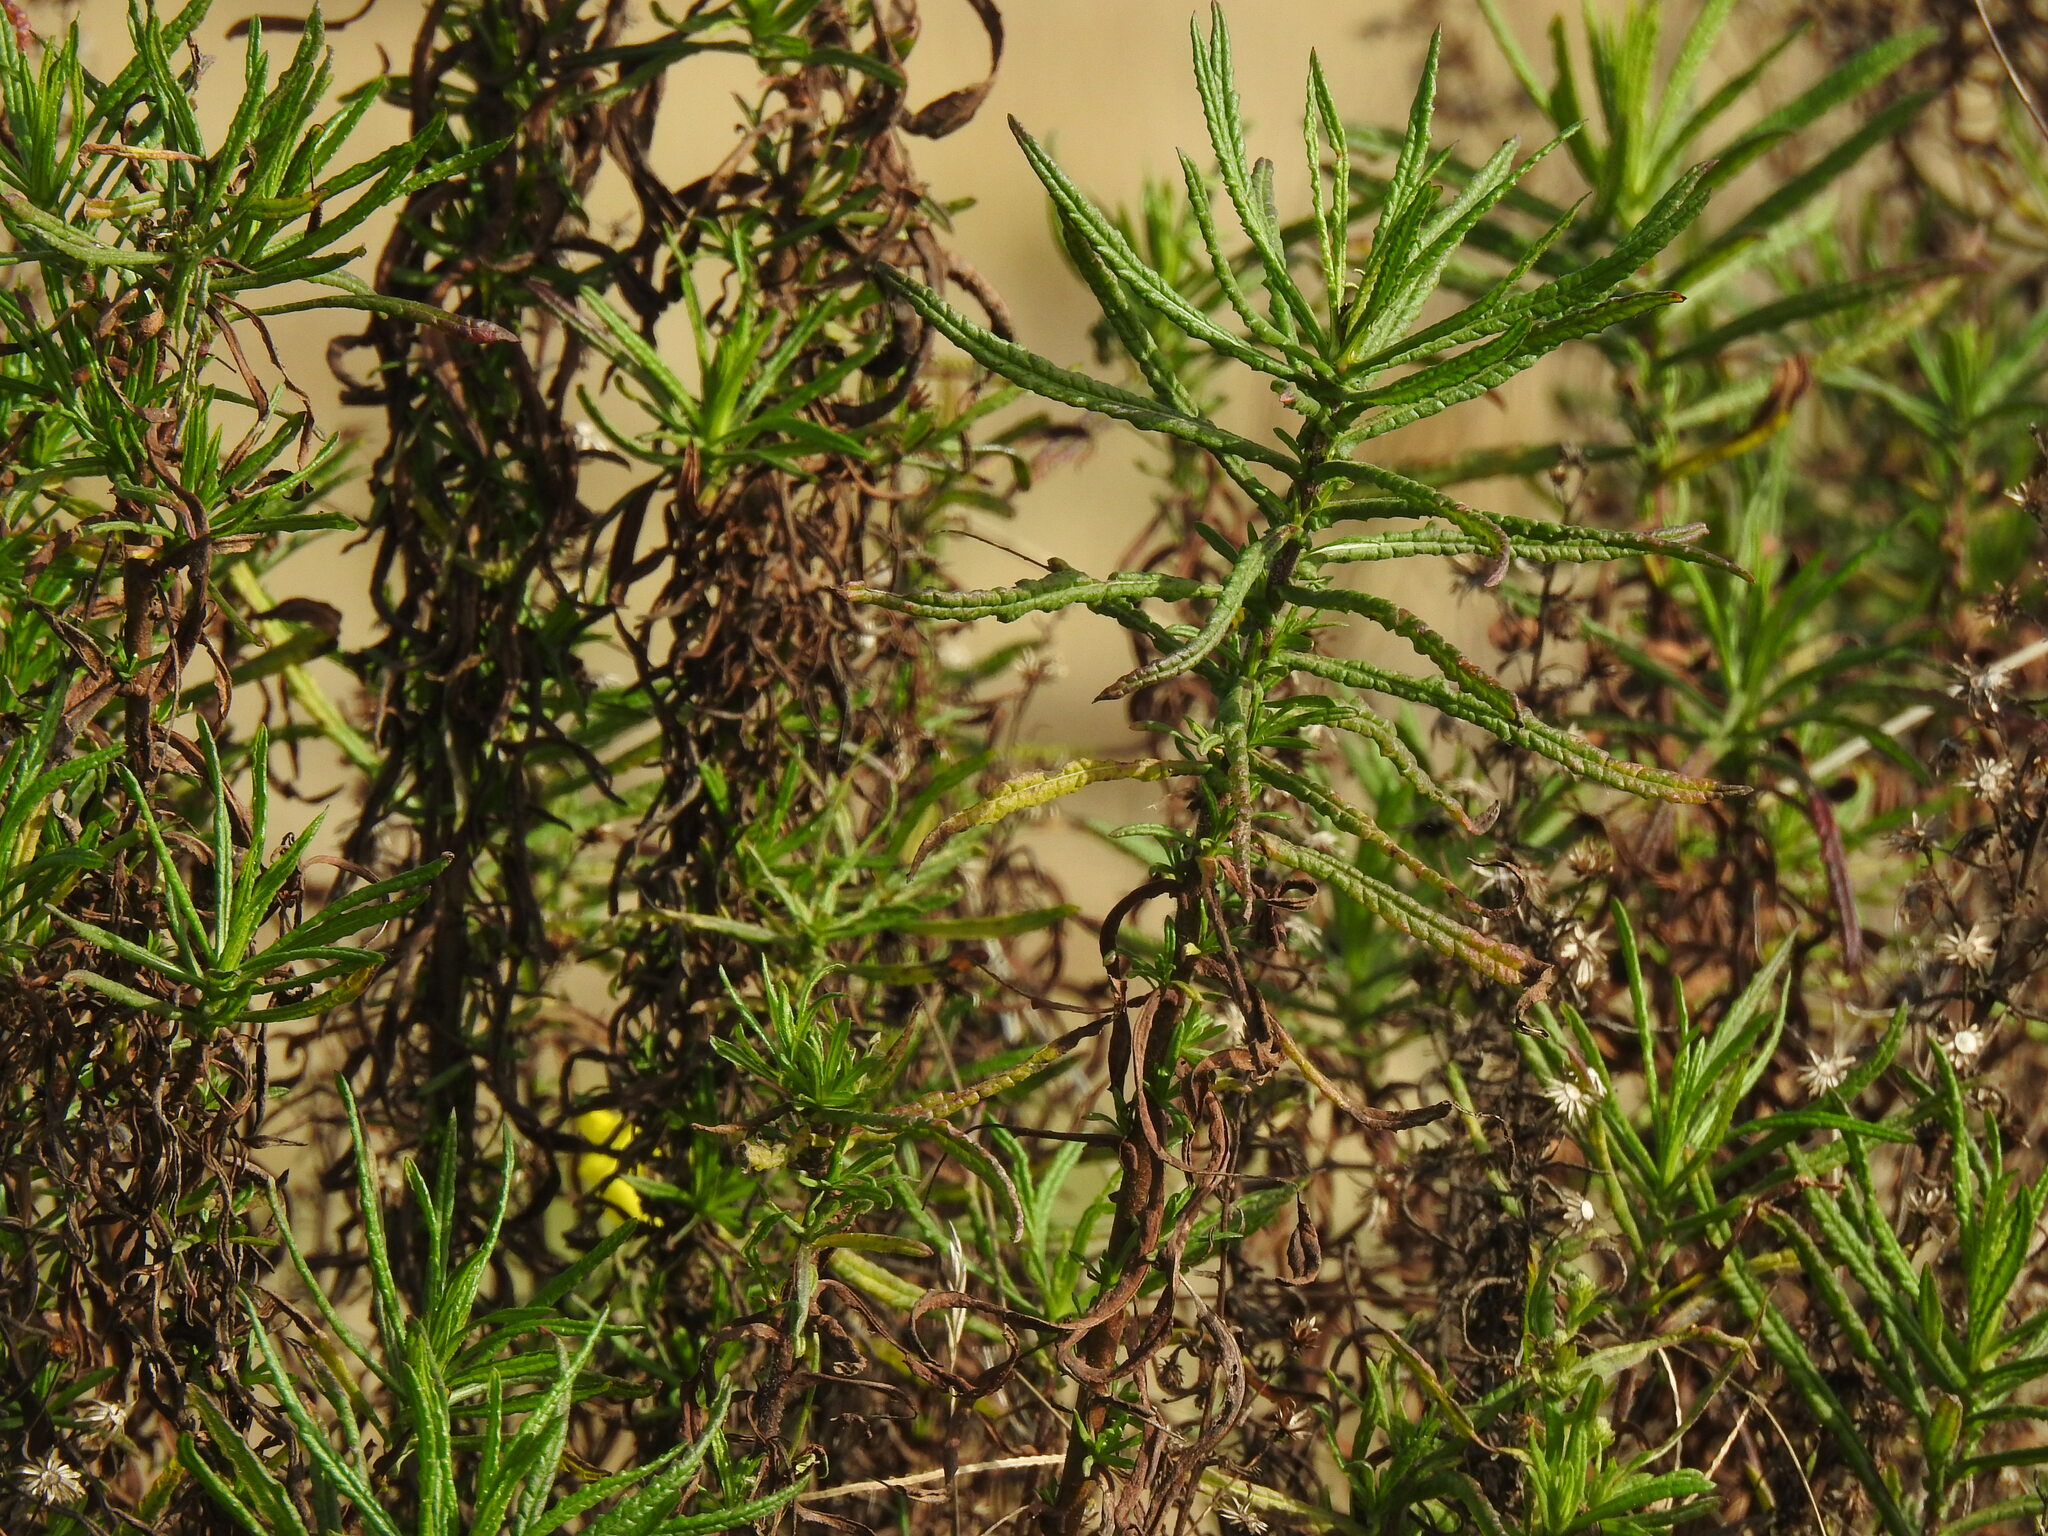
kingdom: Plantae
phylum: Tracheophyta
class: Magnoliopsida
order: Asterales
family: Asteraceae
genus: Dittrichia
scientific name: Dittrichia viscosa
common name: Woody fleabane
